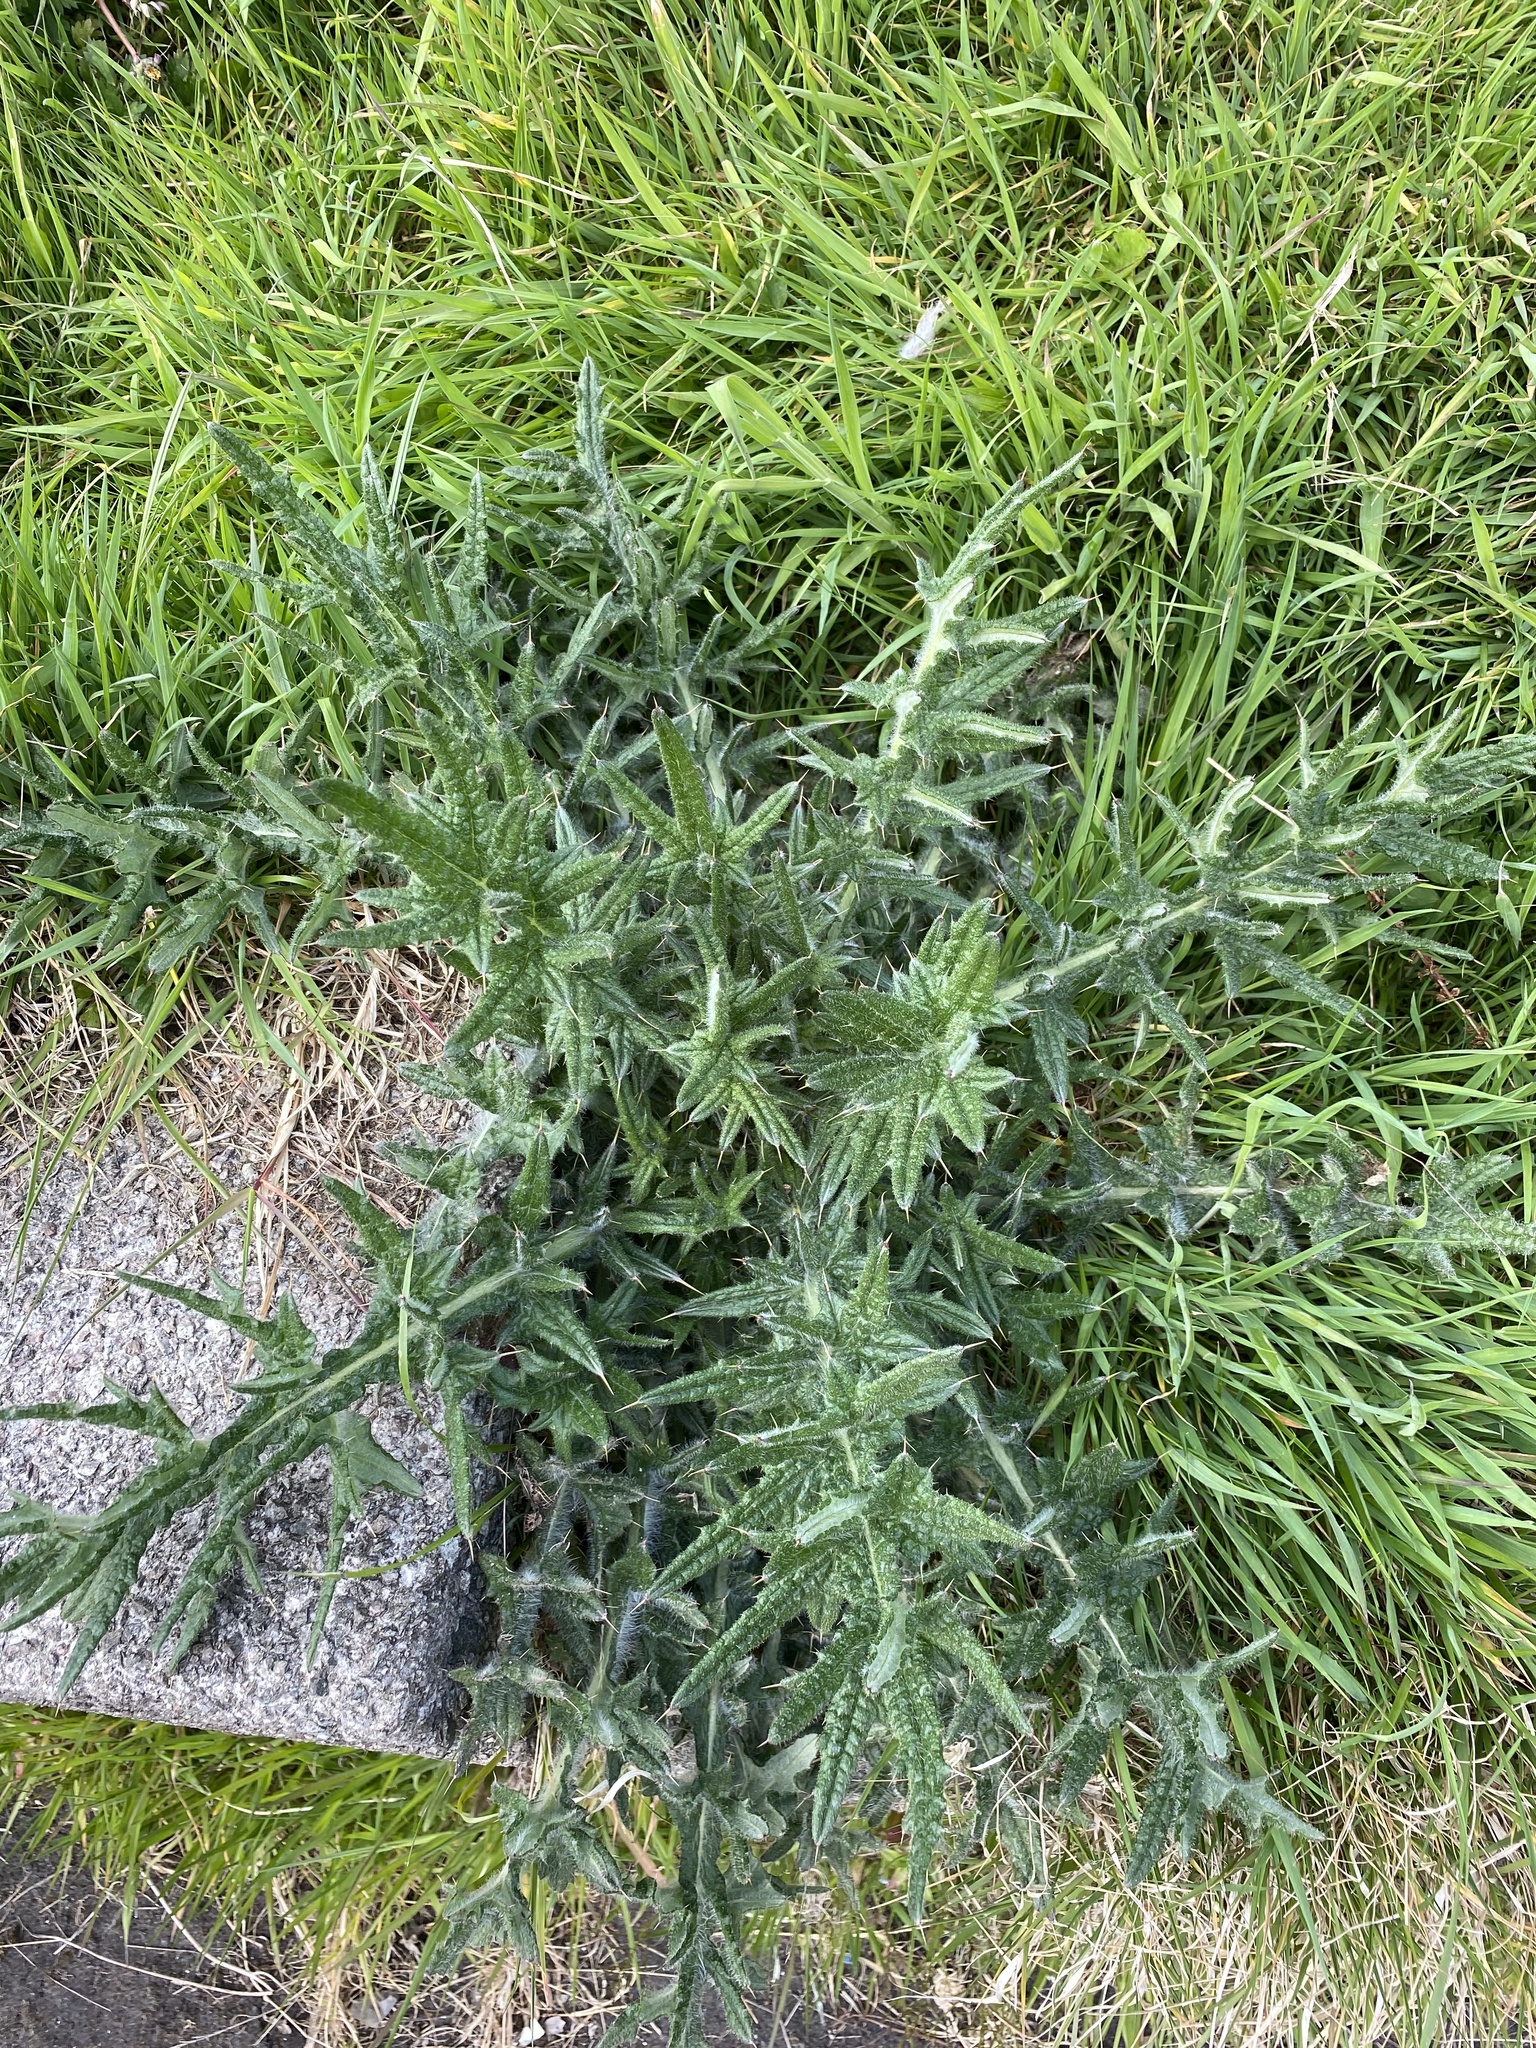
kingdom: Plantae
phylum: Tracheophyta
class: Magnoliopsida
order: Asterales
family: Asteraceae
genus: Cirsium
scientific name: Cirsium vulgare
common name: Bull thistle
